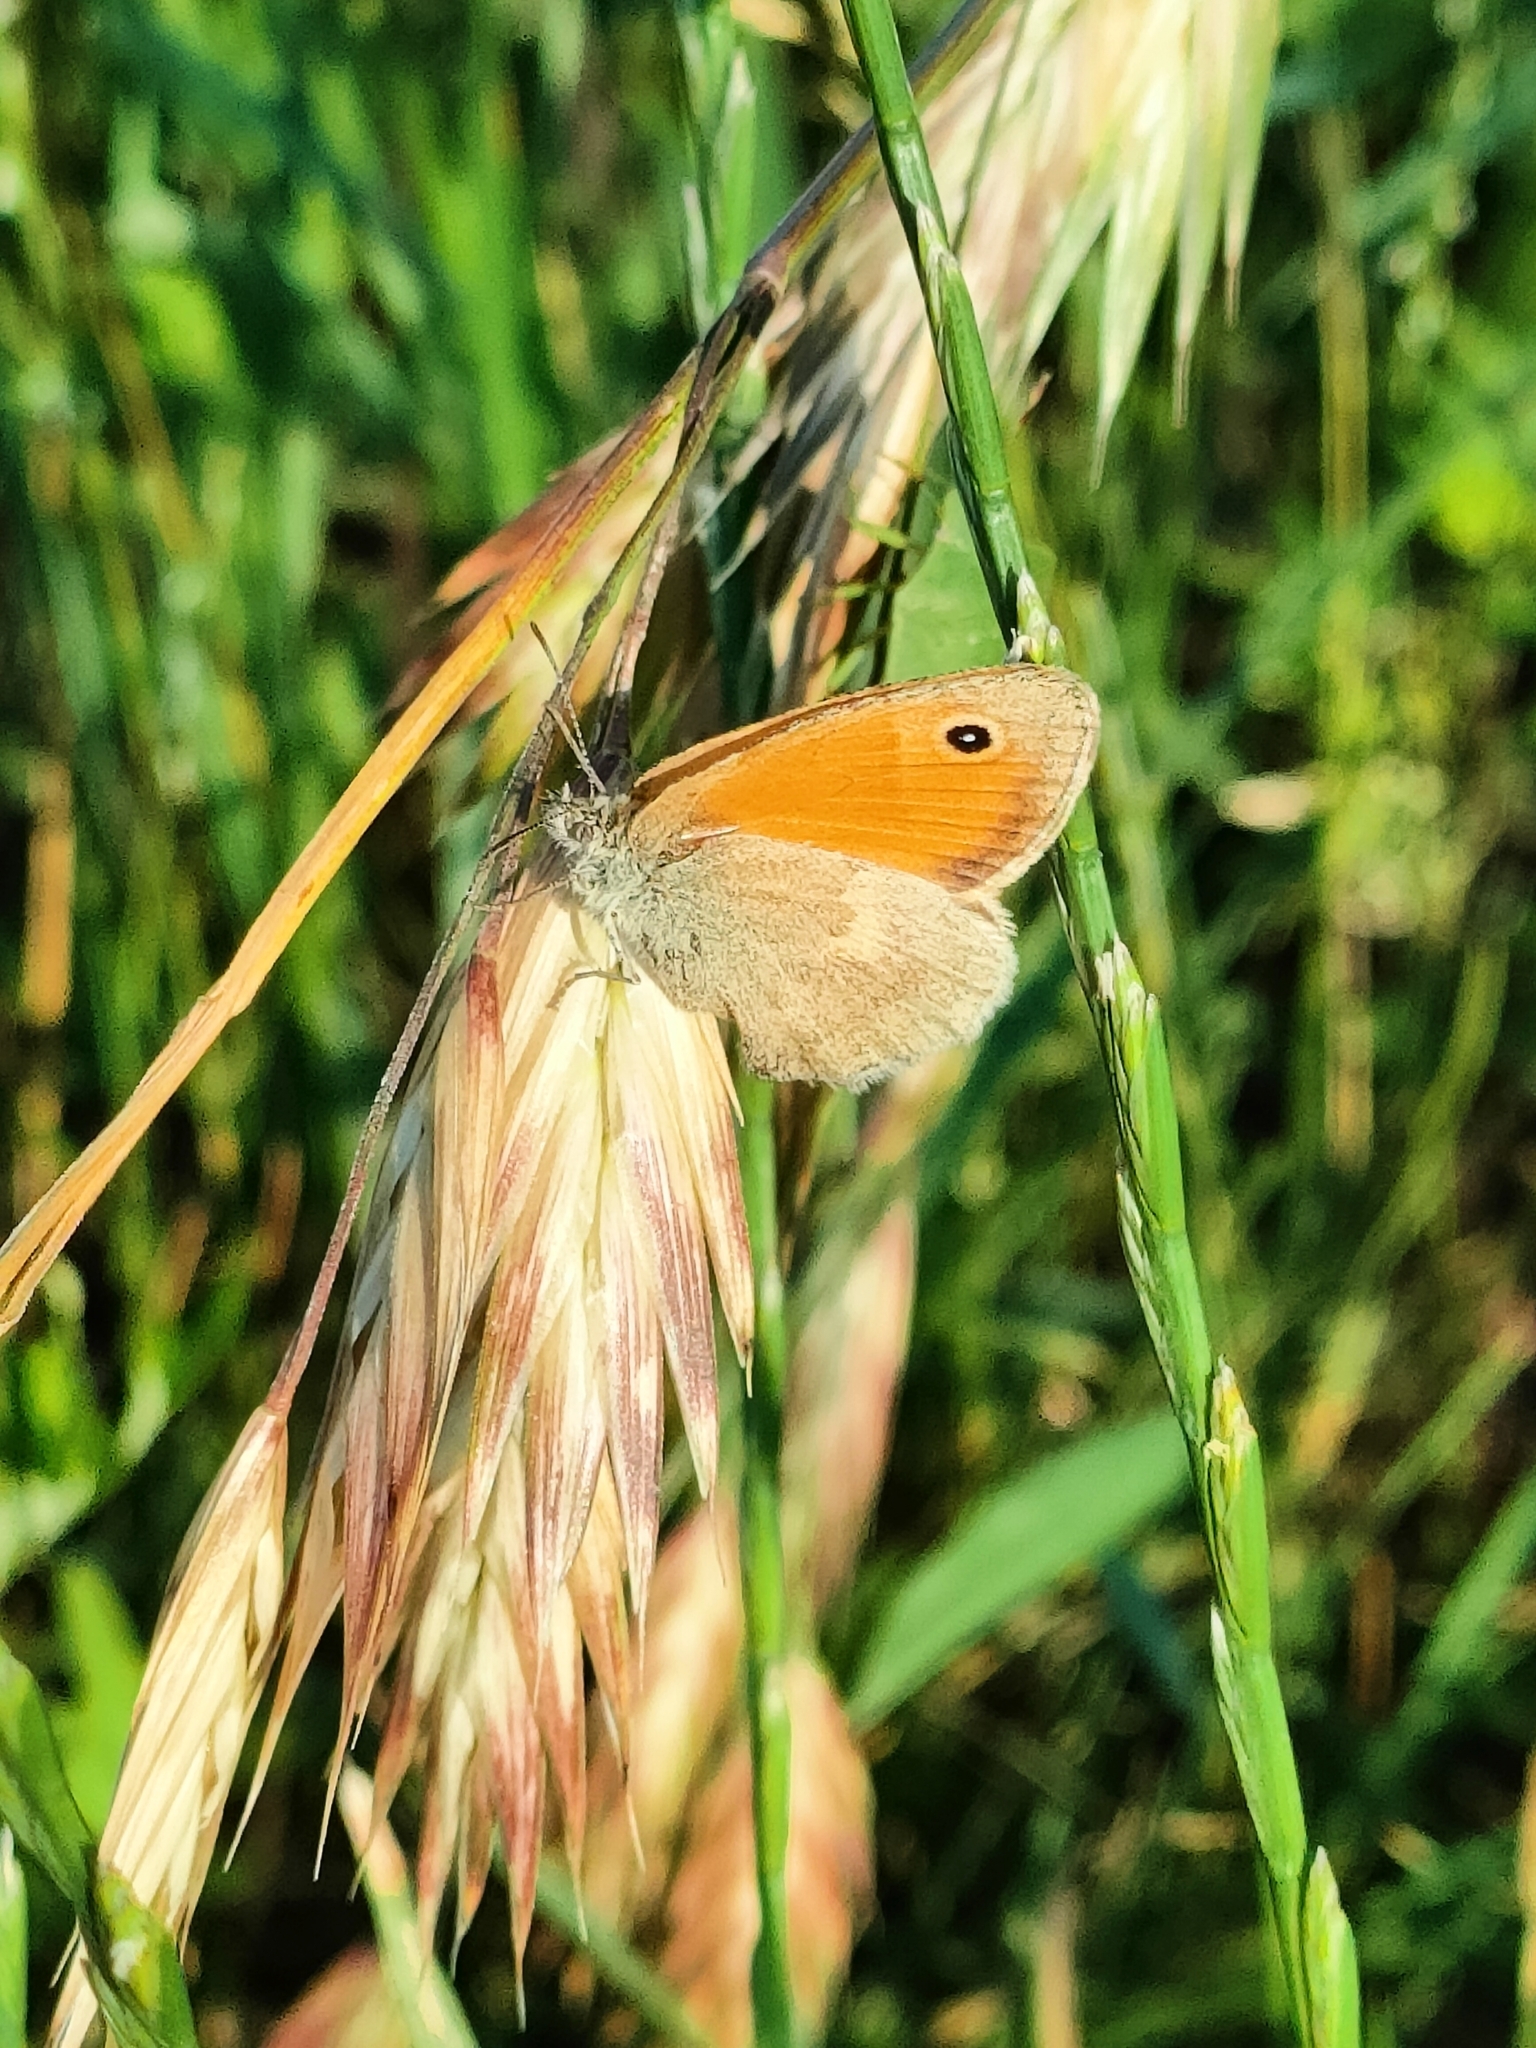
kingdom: Animalia
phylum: Arthropoda
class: Insecta
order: Lepidoptera
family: Nymphalidae
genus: Coenonympha
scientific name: Coenonympha pamphilus
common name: Small heath
